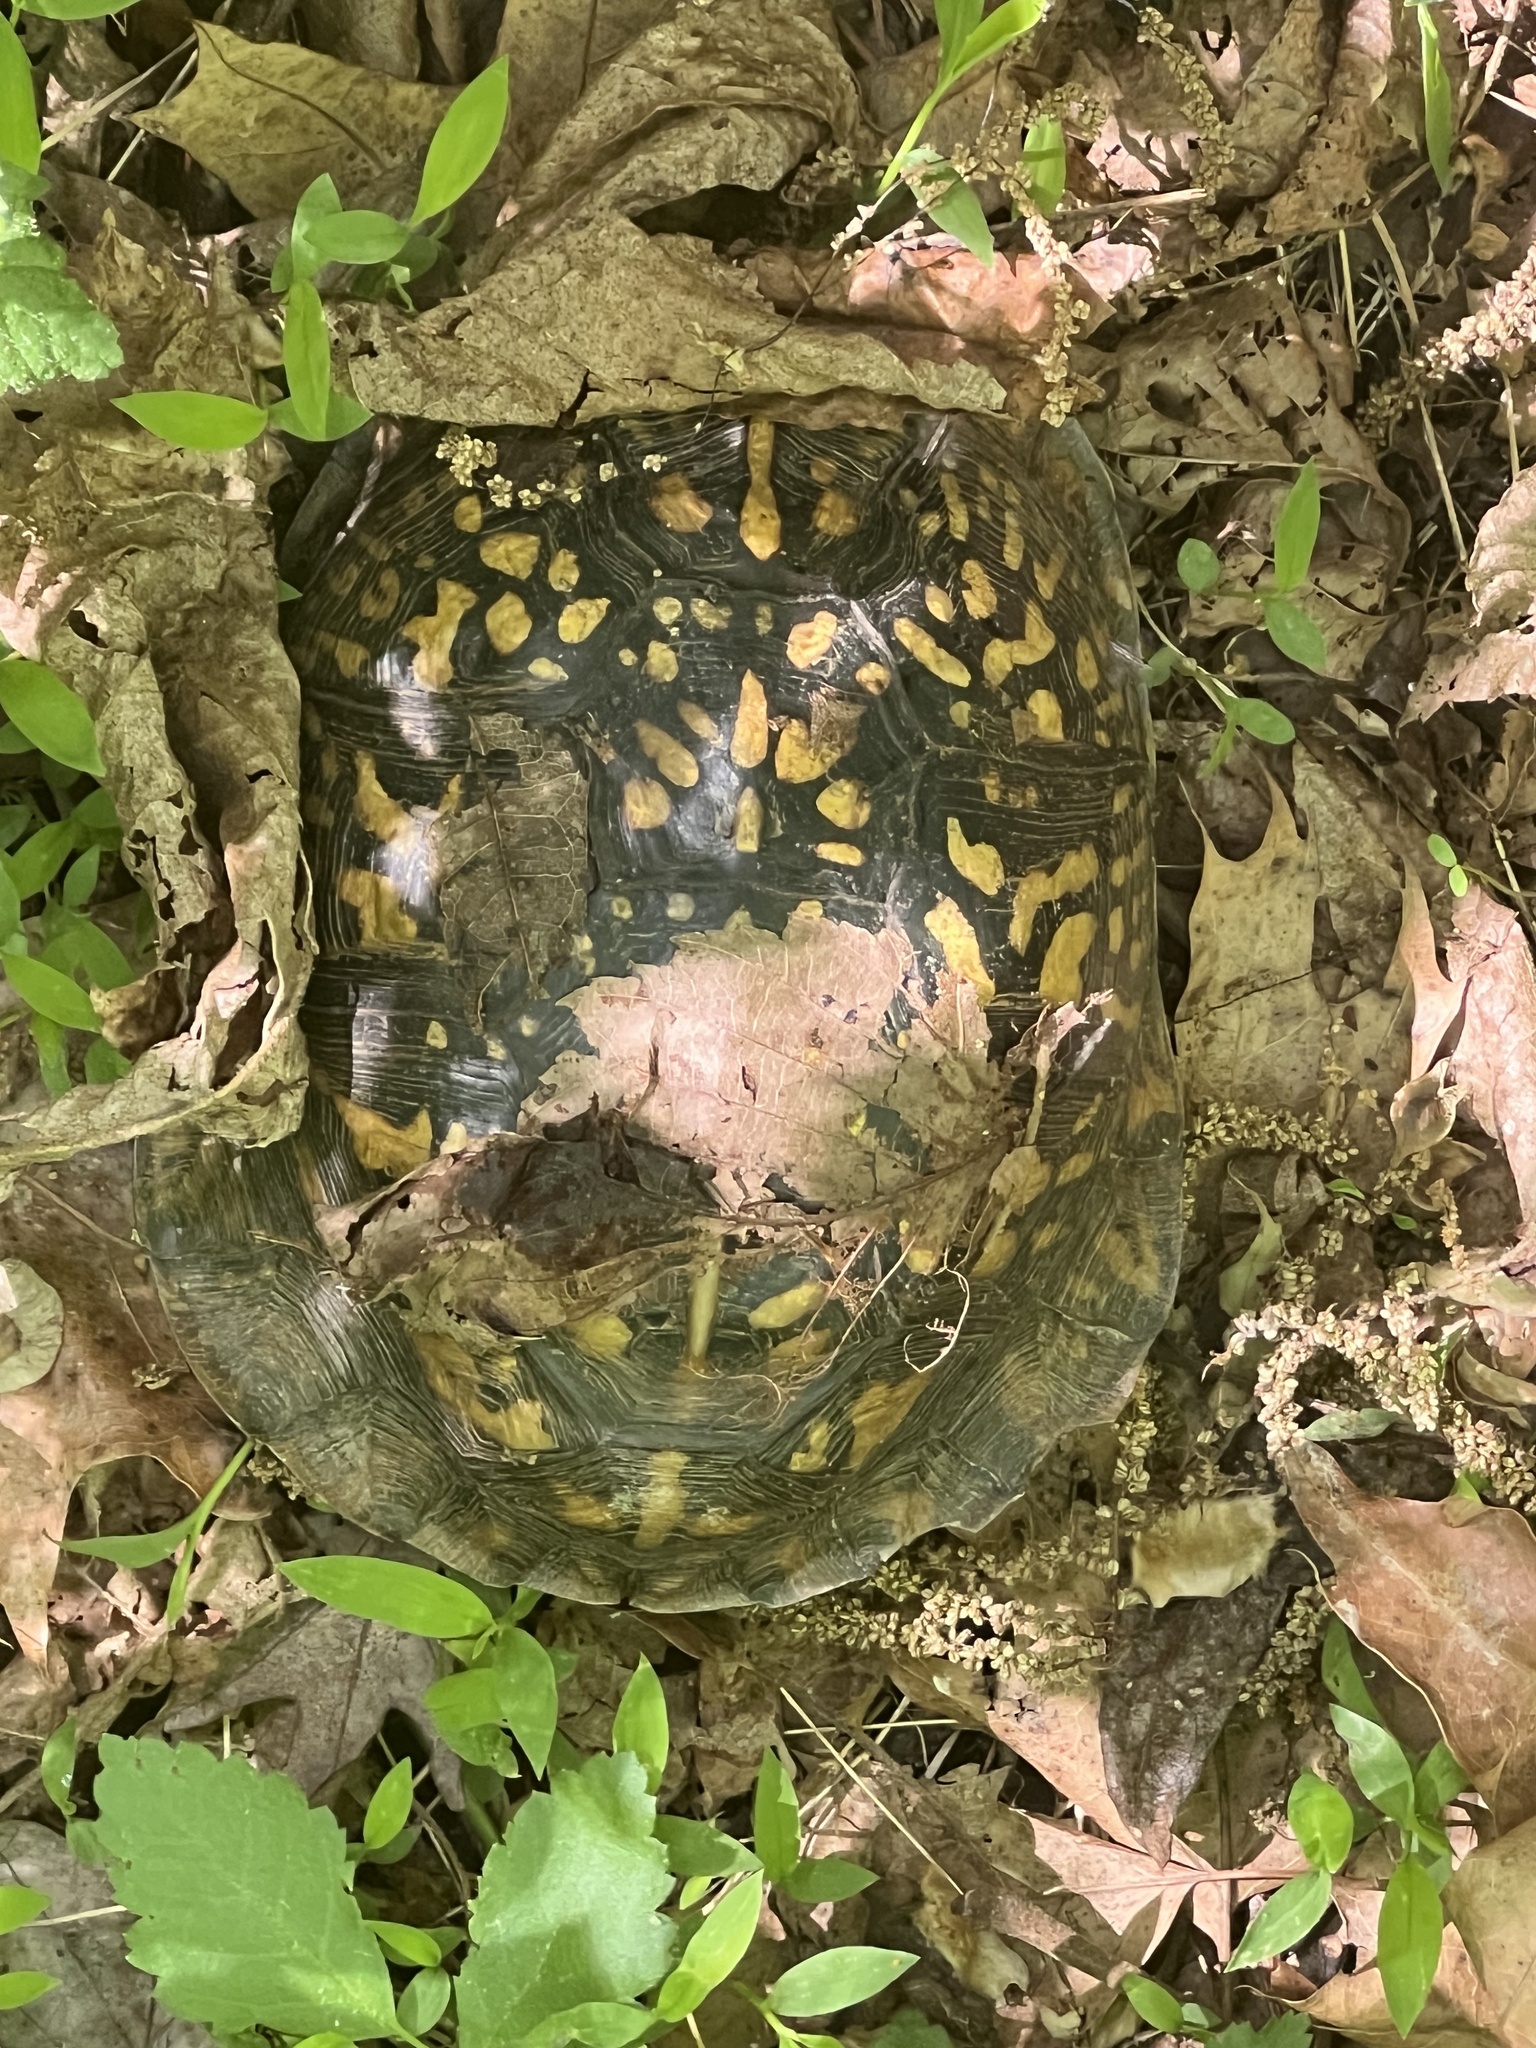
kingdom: Animalia
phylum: Chordata
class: Testudines
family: Emydidae
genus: Terrapene
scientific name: Terrapene carolina
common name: Common box turtle
